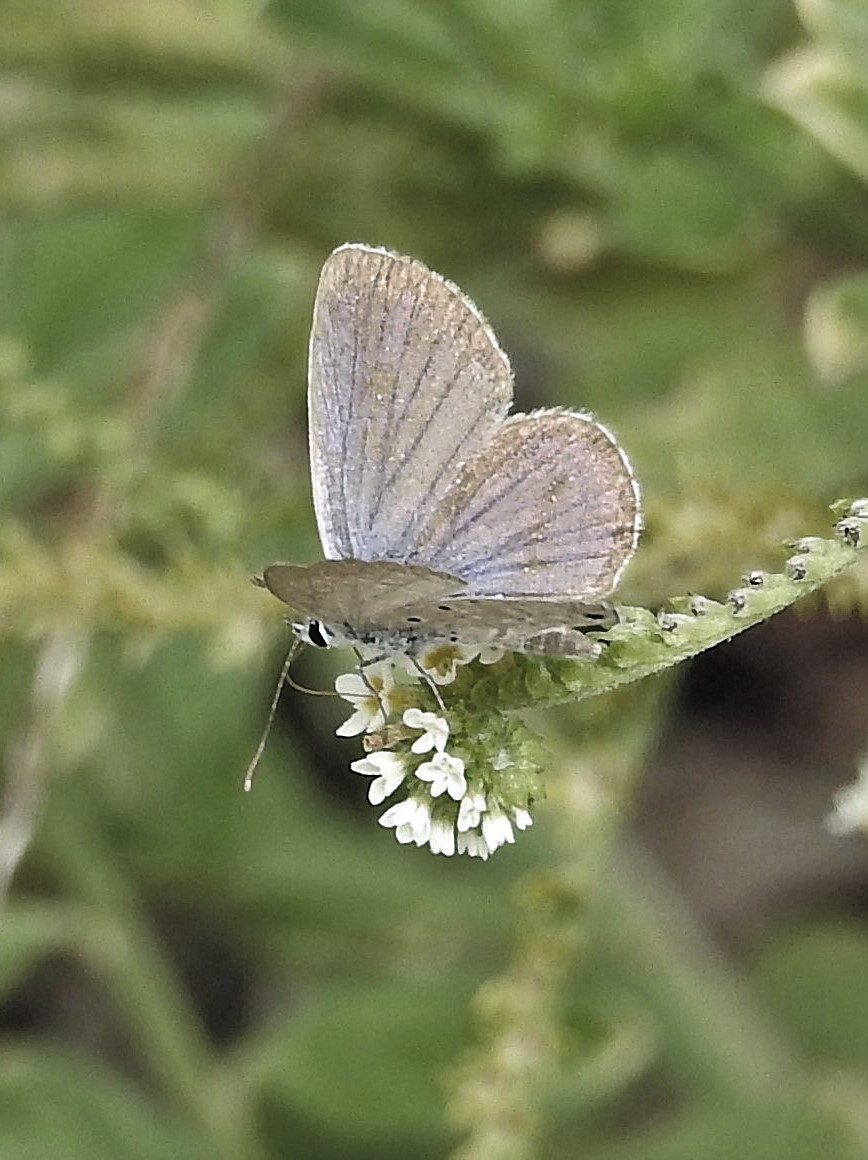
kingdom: Animalia
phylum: Arthropoda
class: Insecta
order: Lepidoptera
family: Lycaenidae
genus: Hemiargus
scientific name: Hemiargus hanno
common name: Common blue
